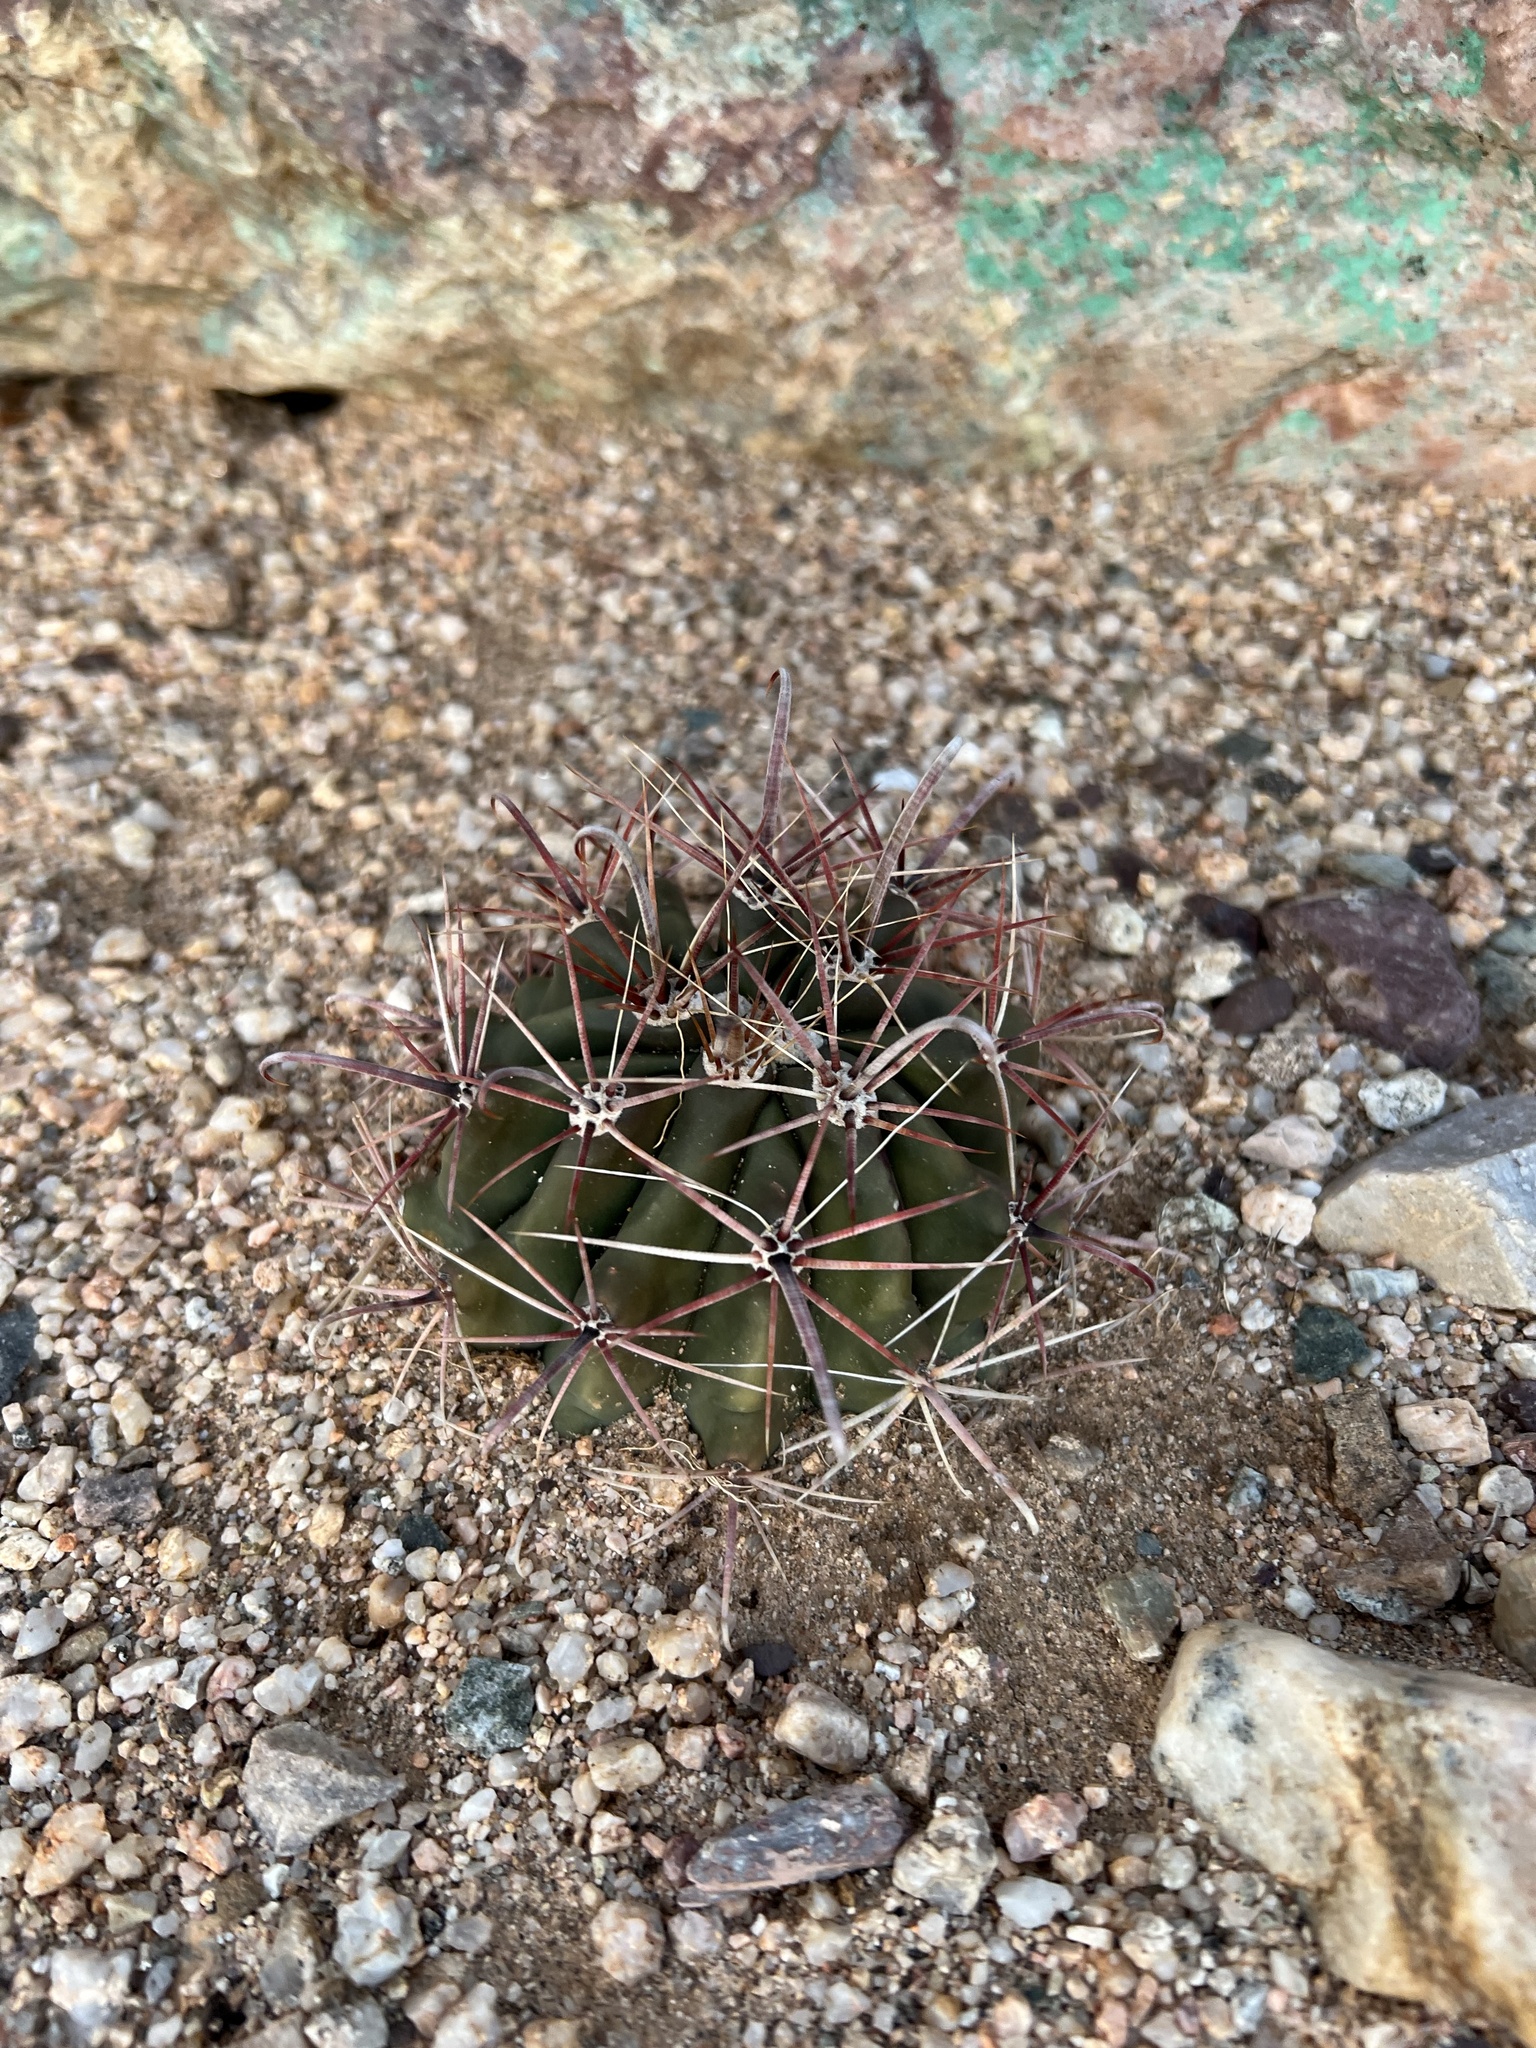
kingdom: Plantae
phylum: Tracheophyta
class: Magnoliopsida
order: Caryophyllales
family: Cactaceae
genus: Ferocactus
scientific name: Ferocactus wislizeni
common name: Candy barrel cactus
